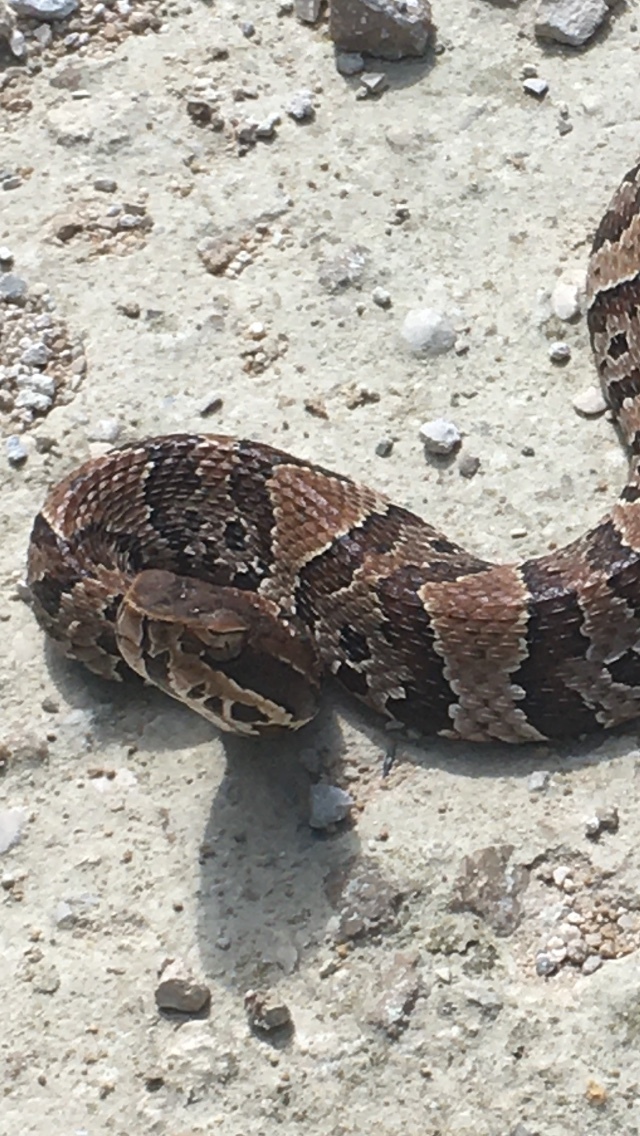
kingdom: Animalia
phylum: Chordata
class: Squamata
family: Viperidae
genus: Agkistrodon
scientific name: Agkistrodon conanti
